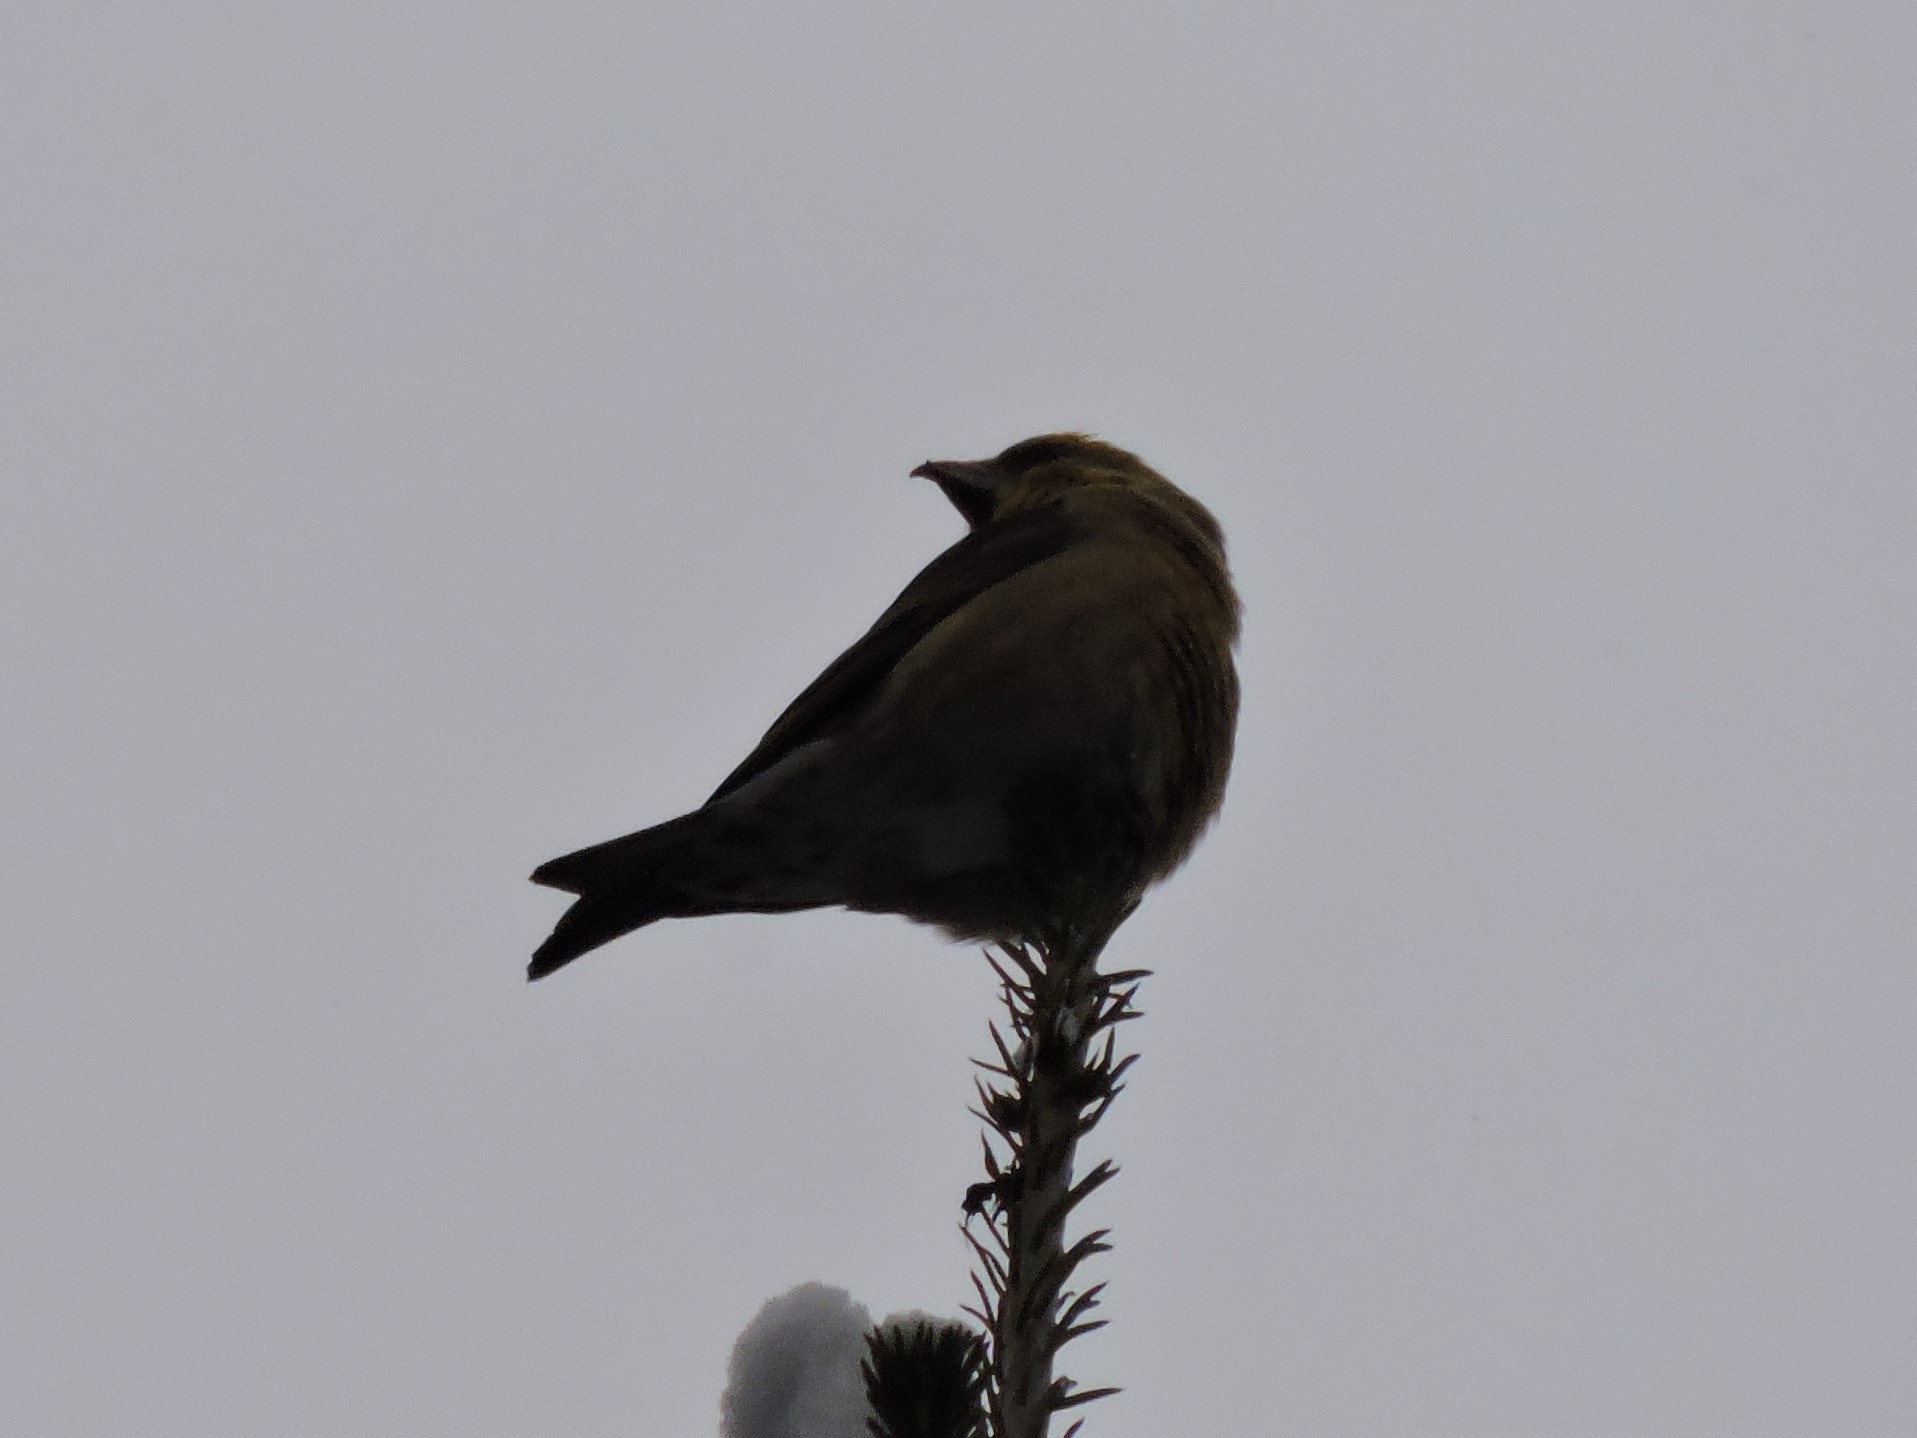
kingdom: Animalia
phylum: Chordata
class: Aves
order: Passeriformes
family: Fringillidae
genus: Loxia
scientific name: Loxia curvirostra
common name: Red crossbill
